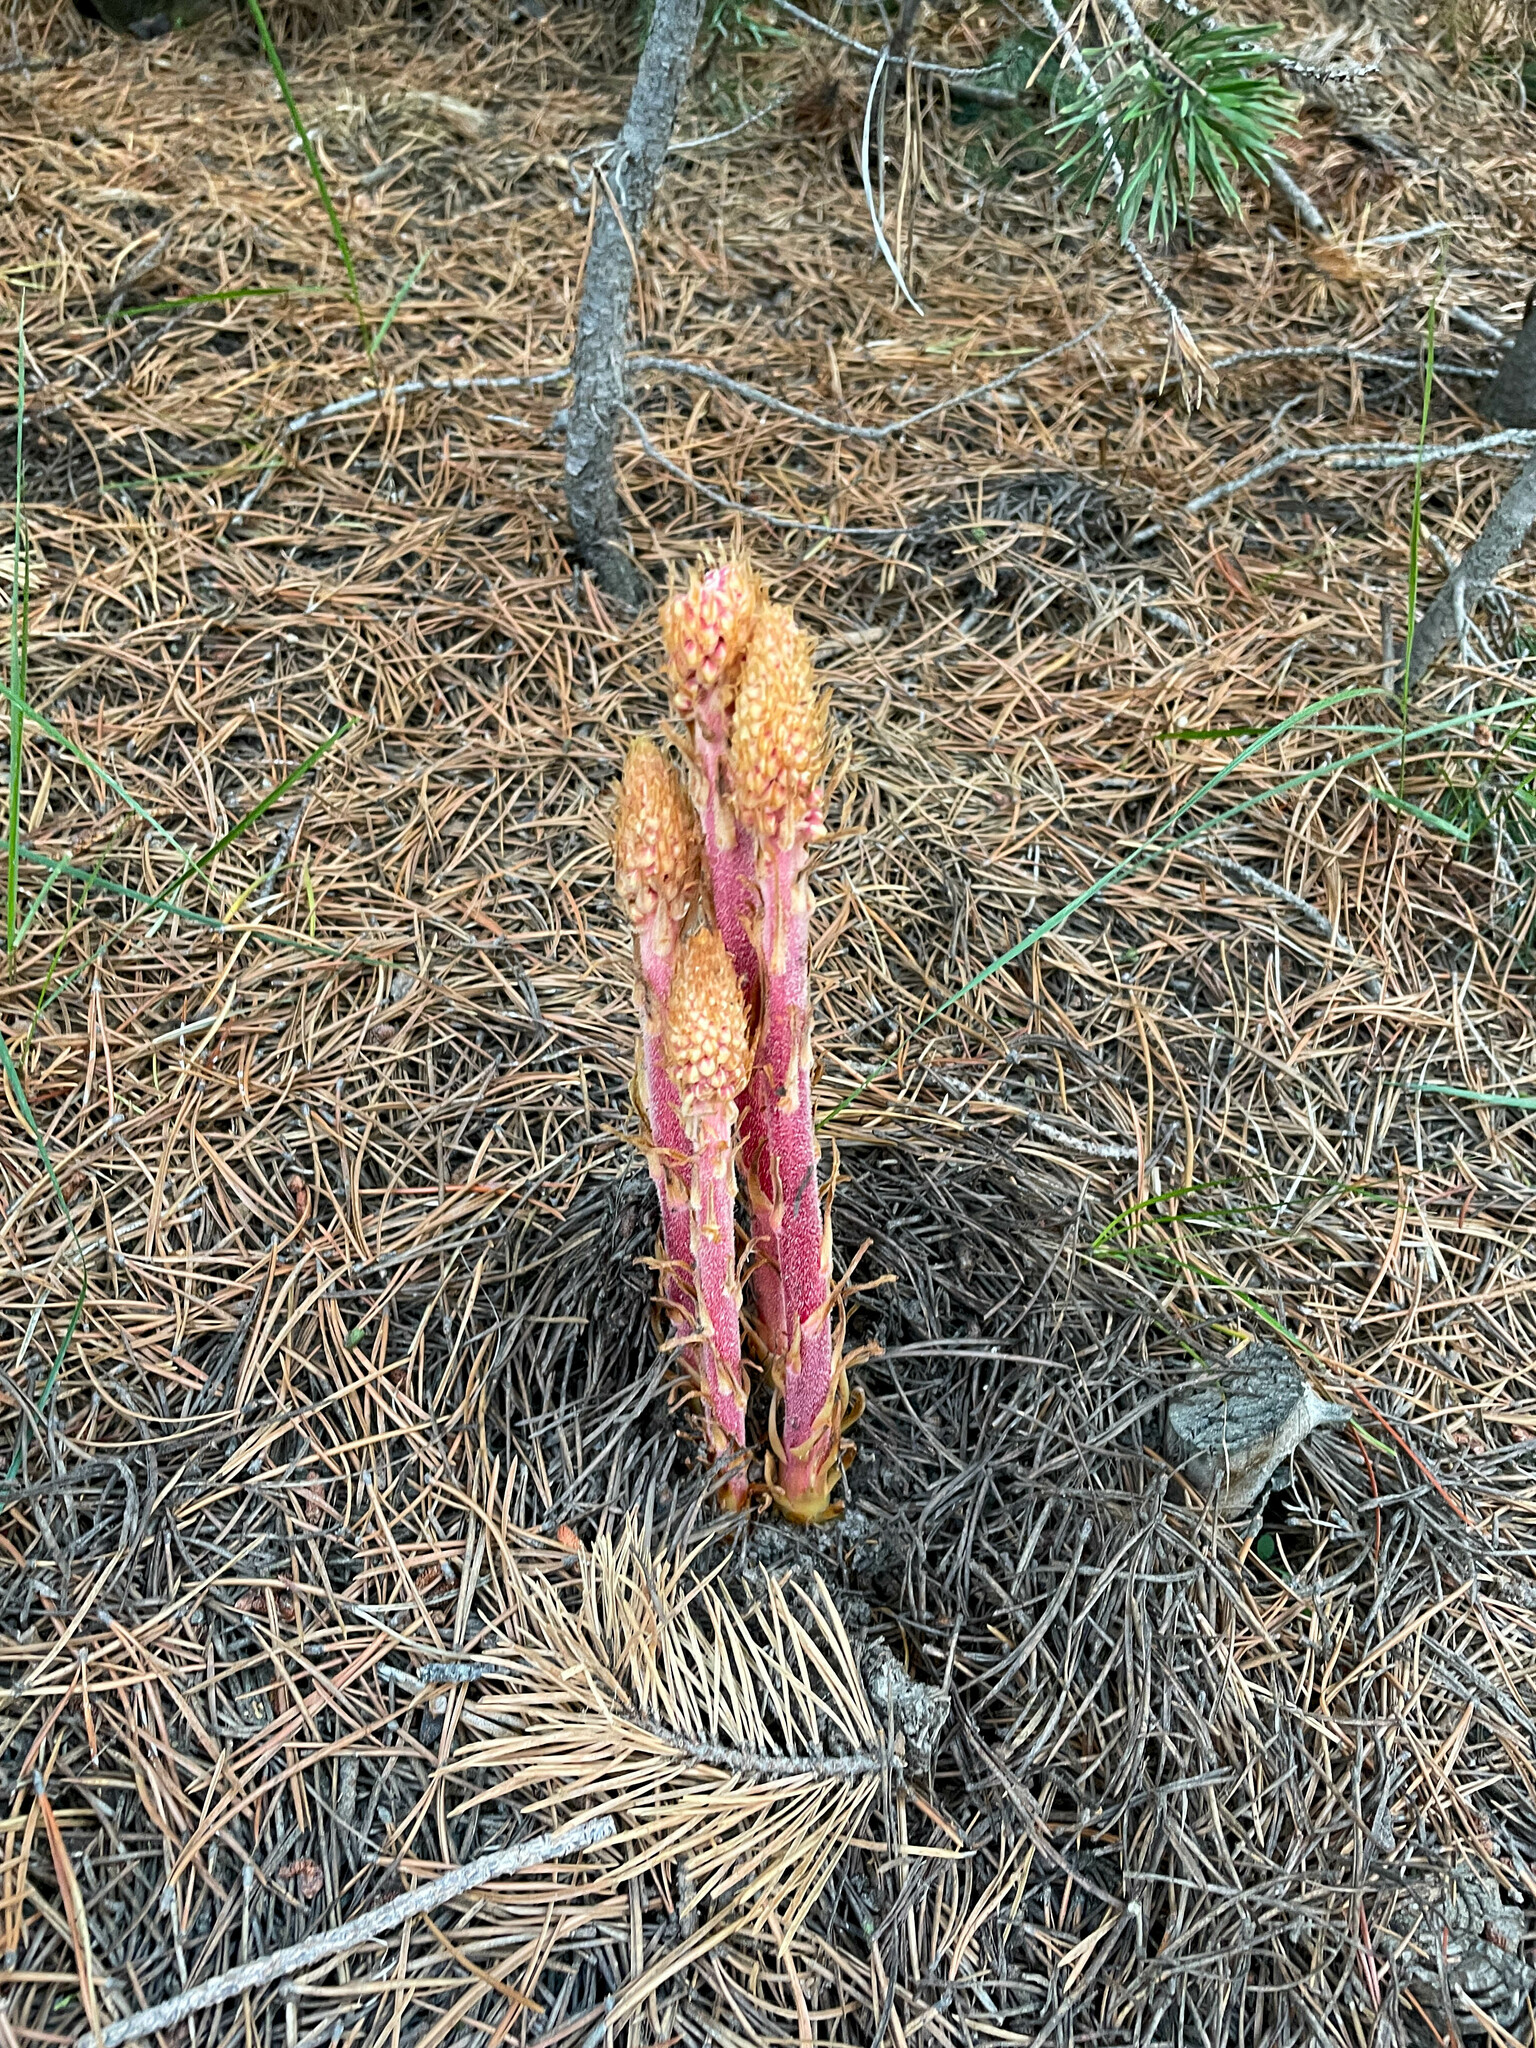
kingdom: Plantae
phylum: Tracheophyta
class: Magnoliopsida
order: Ericales
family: Ericaceae
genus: Pterospora
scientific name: Pterospora andromedea
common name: Giant bird's-nest
